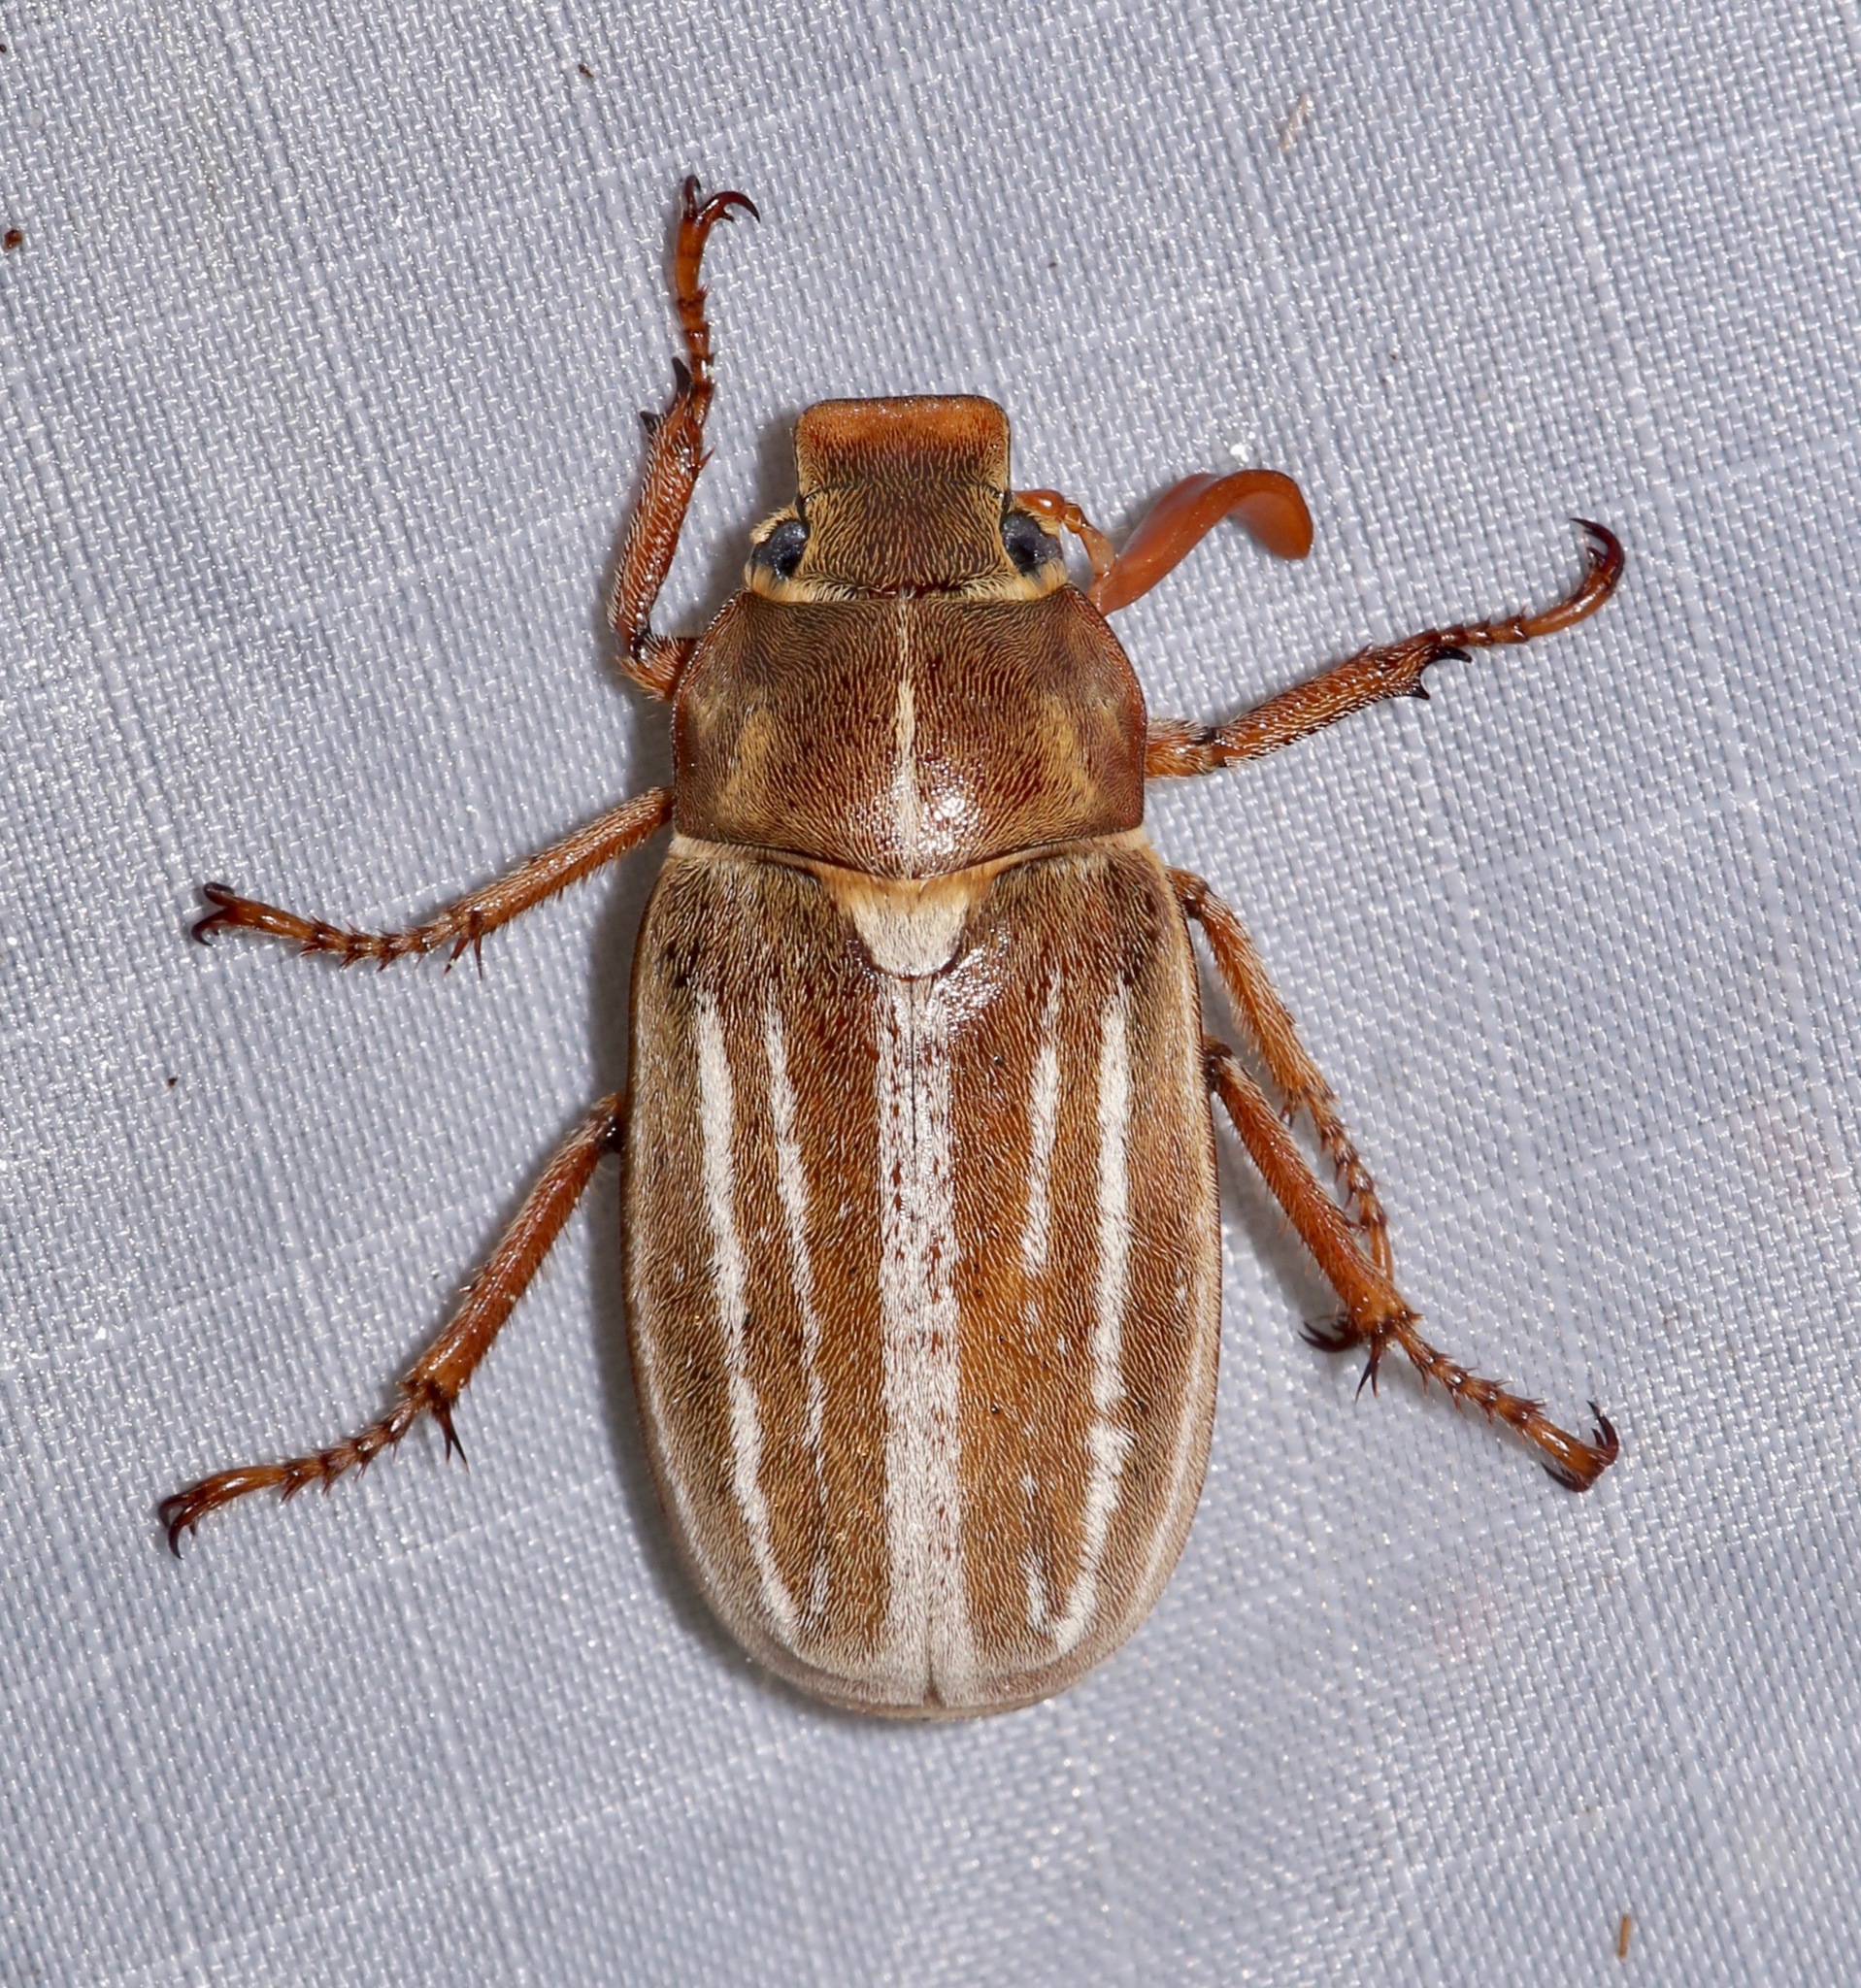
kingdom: Animalia
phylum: Arthropoda
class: Insecta
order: Coleoptera
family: Scarabaeidae
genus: Polyphylla
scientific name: Polyphylla occidentalis
